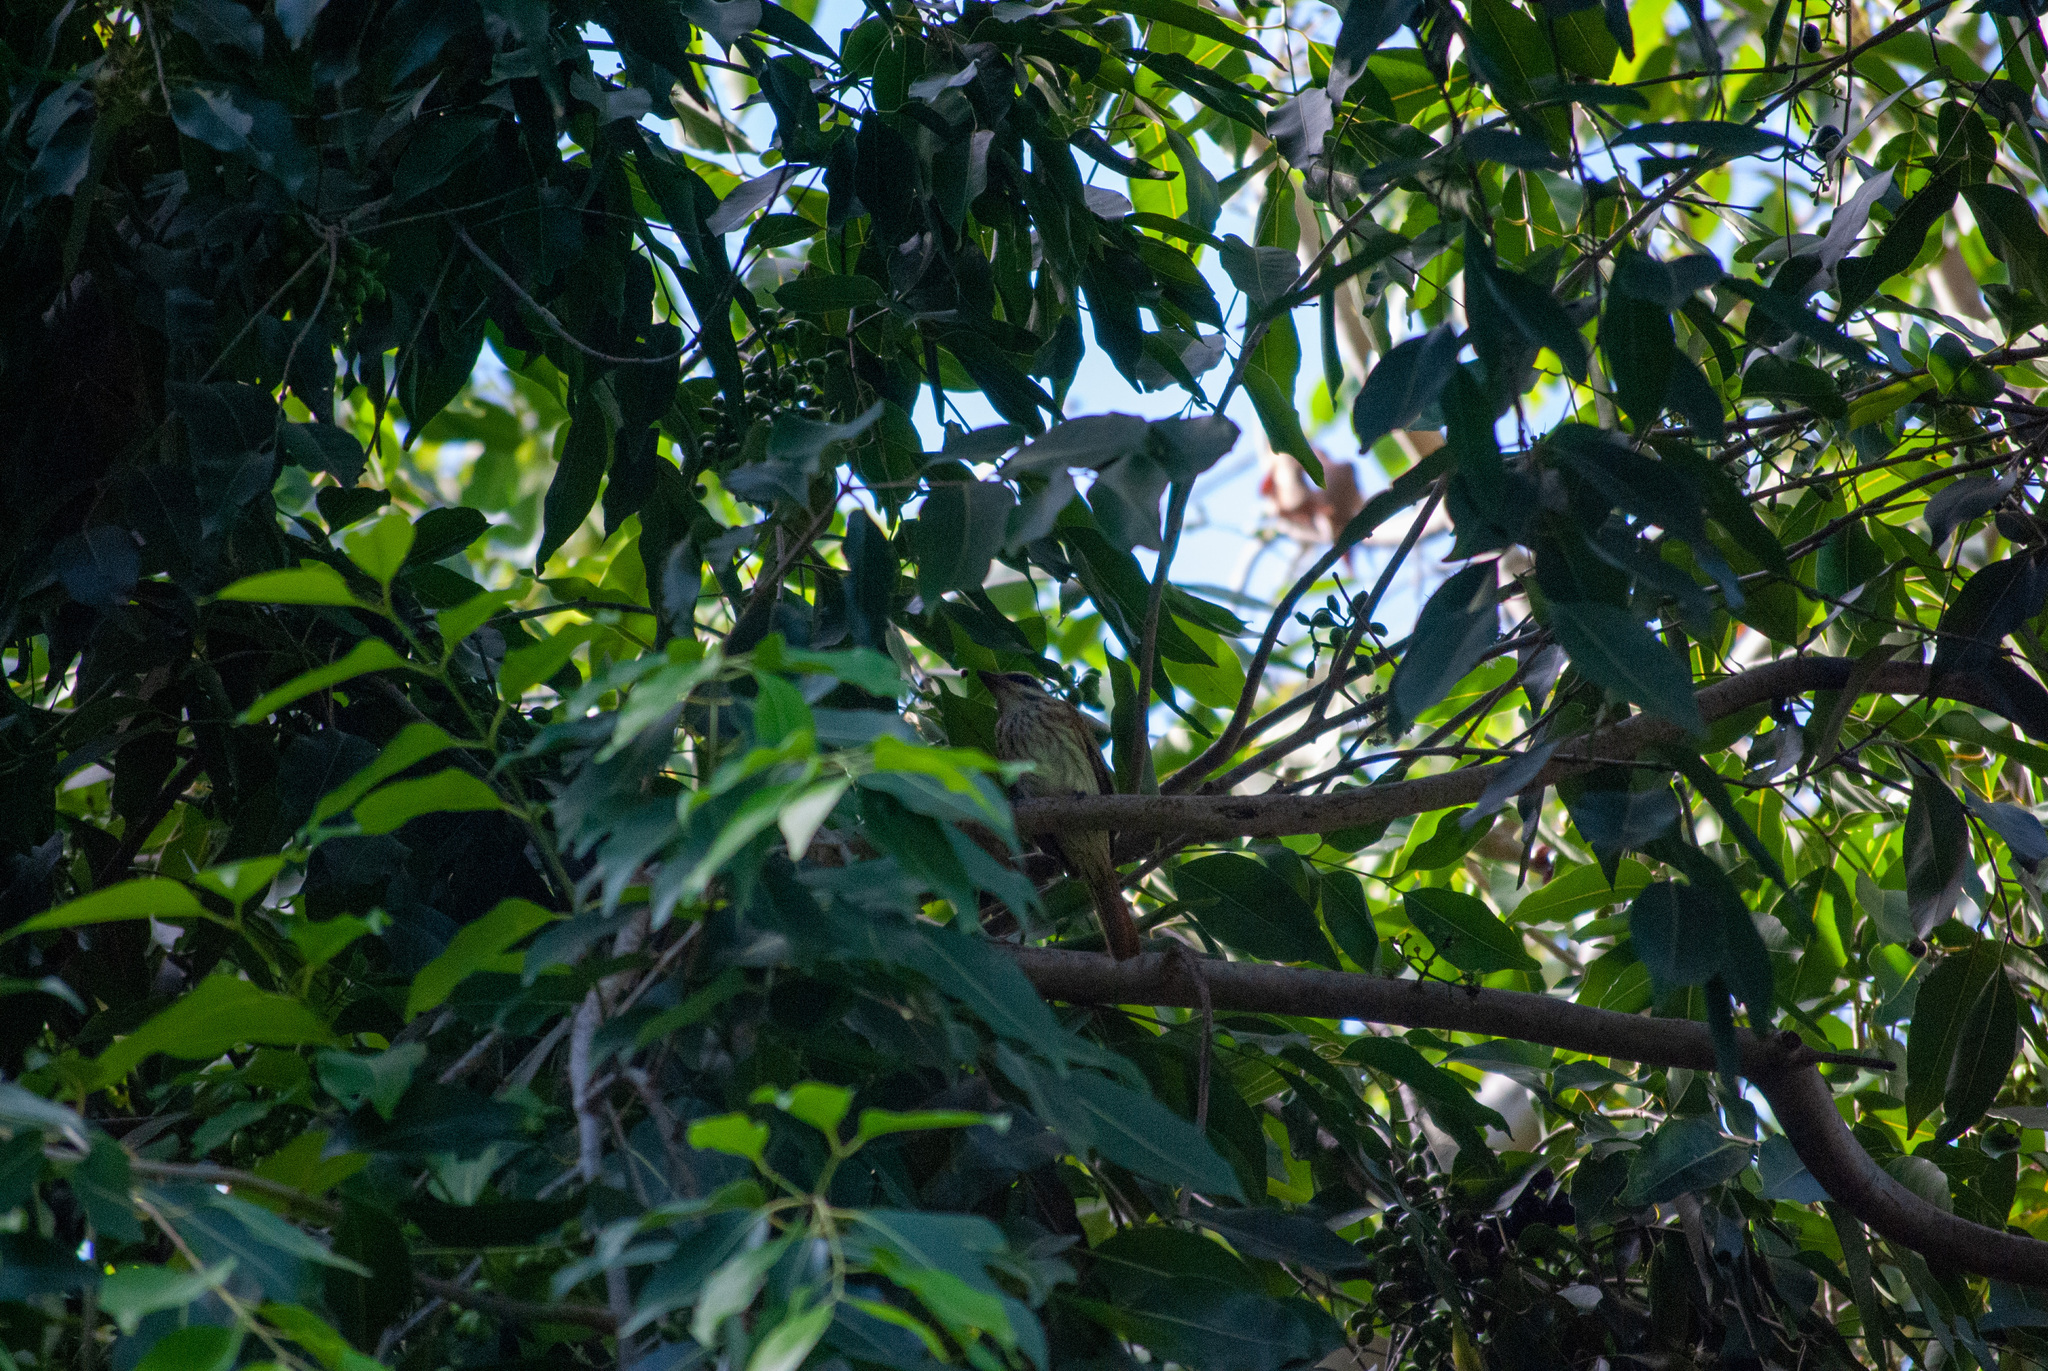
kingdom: Animalia
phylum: Chordata
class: Aves
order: Passeriformes
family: Tyrannidae
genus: Myiodynastes
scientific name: Myiodynastes maculatus
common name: Streaked flycatcher
